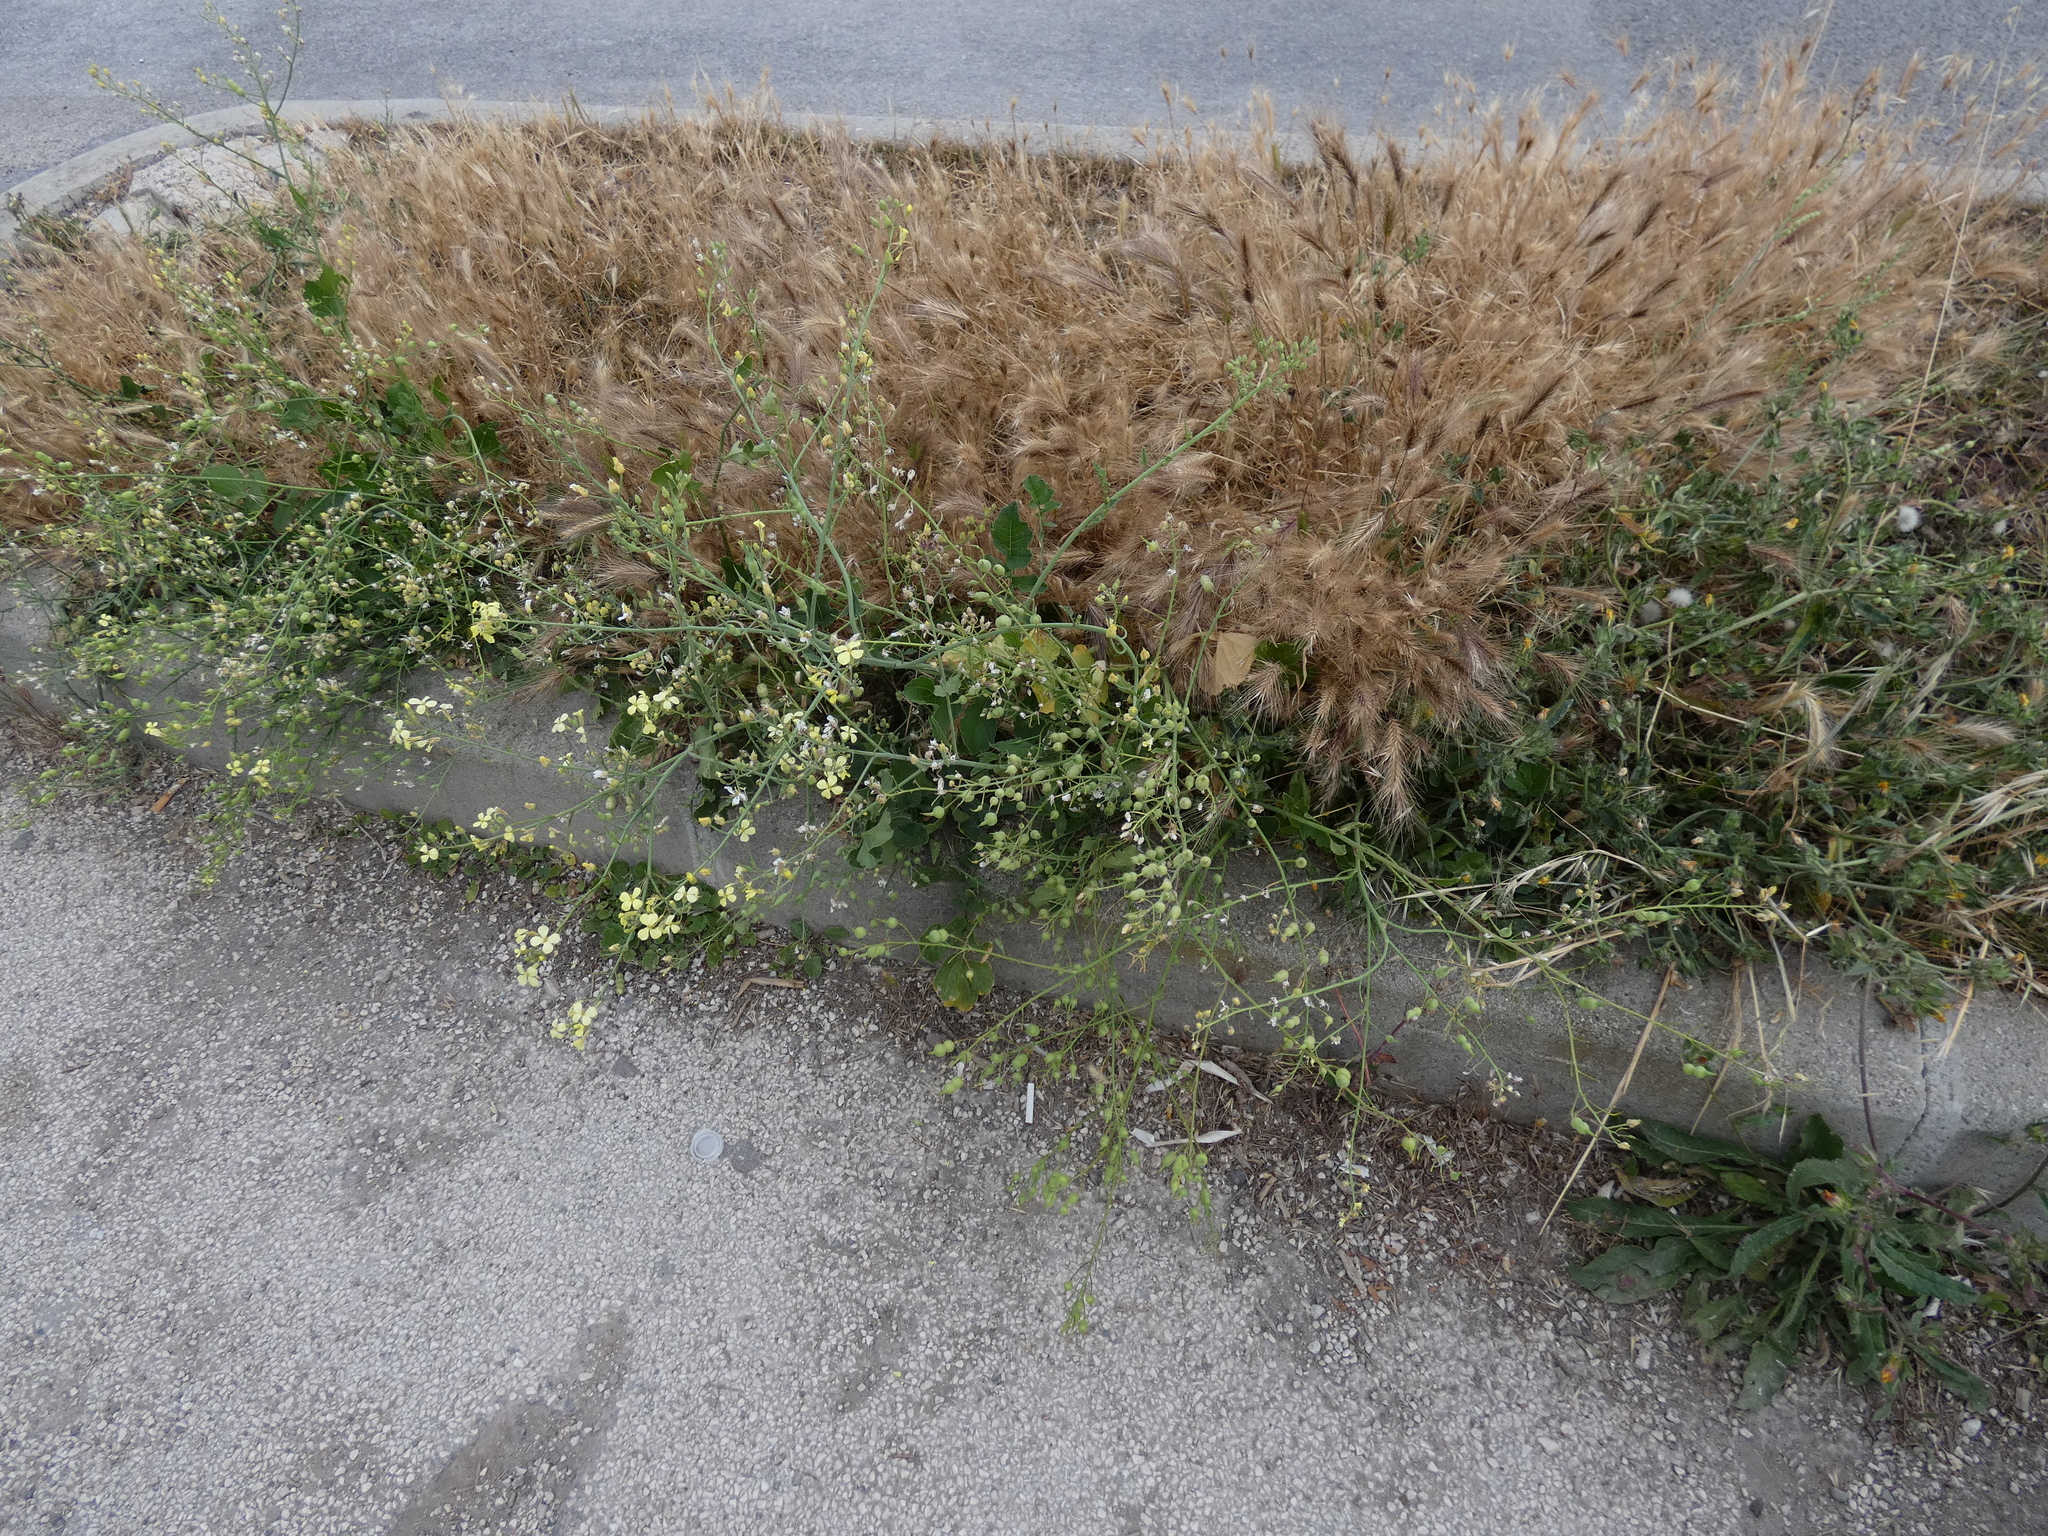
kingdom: Plantae
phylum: Tracheophyta
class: Magnoliopsida
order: Brassicales
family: Brassicaceae
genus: Raphanus
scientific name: Raphanus raphanistrum
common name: Wild radish
